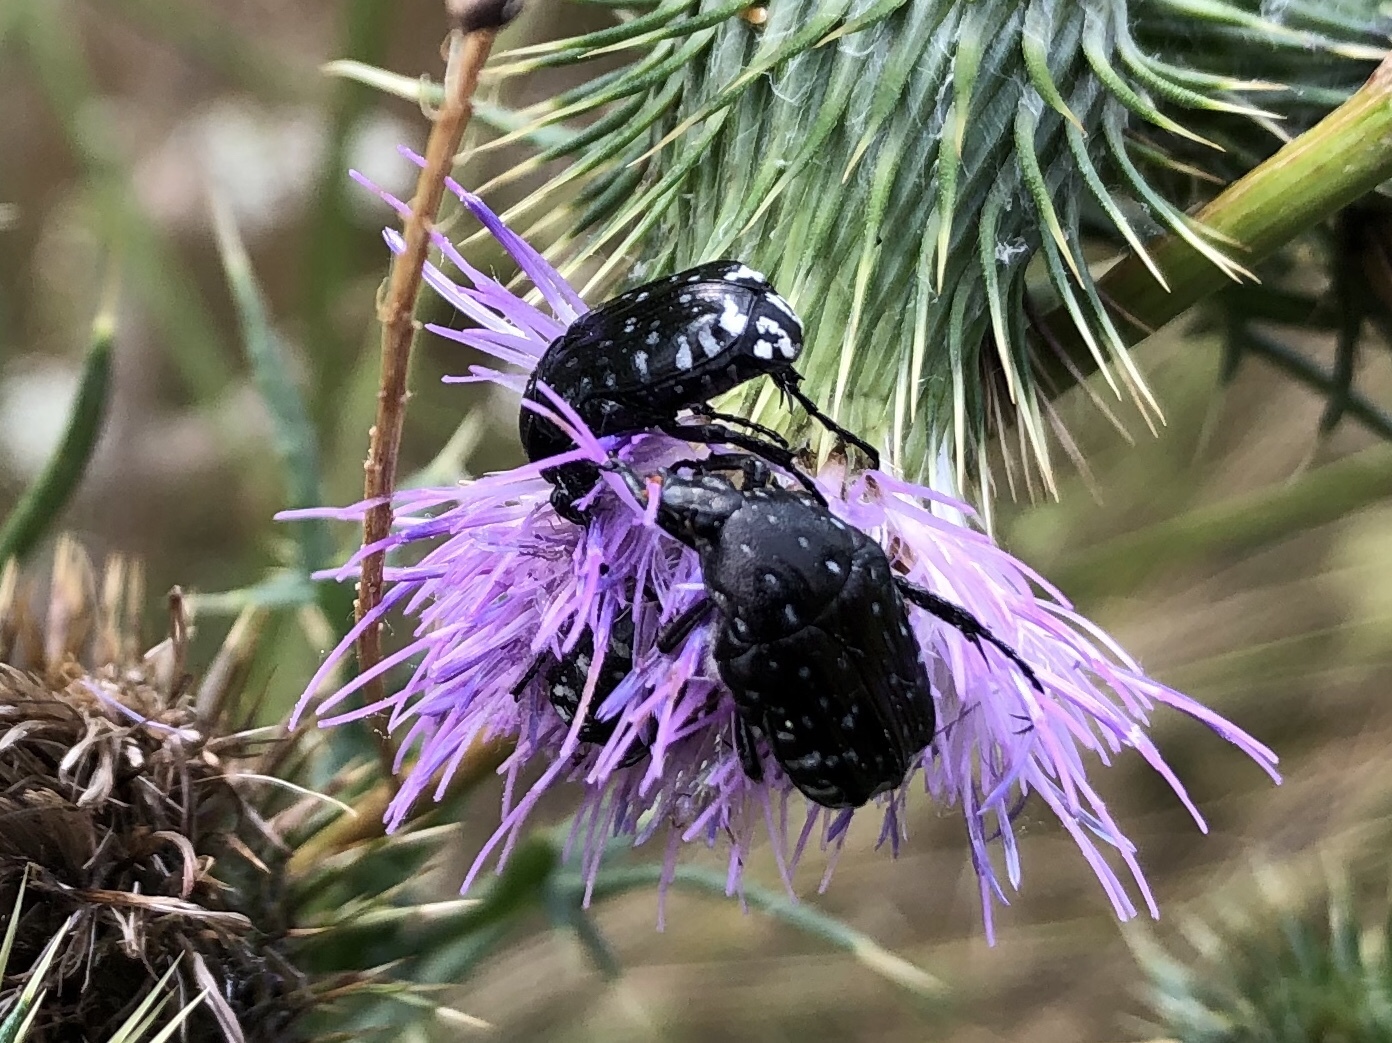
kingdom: Animalia
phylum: Arthropoda
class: Insecta
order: Coleoptera
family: Scarabaeidae
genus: Oxythyrea
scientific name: Oxythyrea funesta
